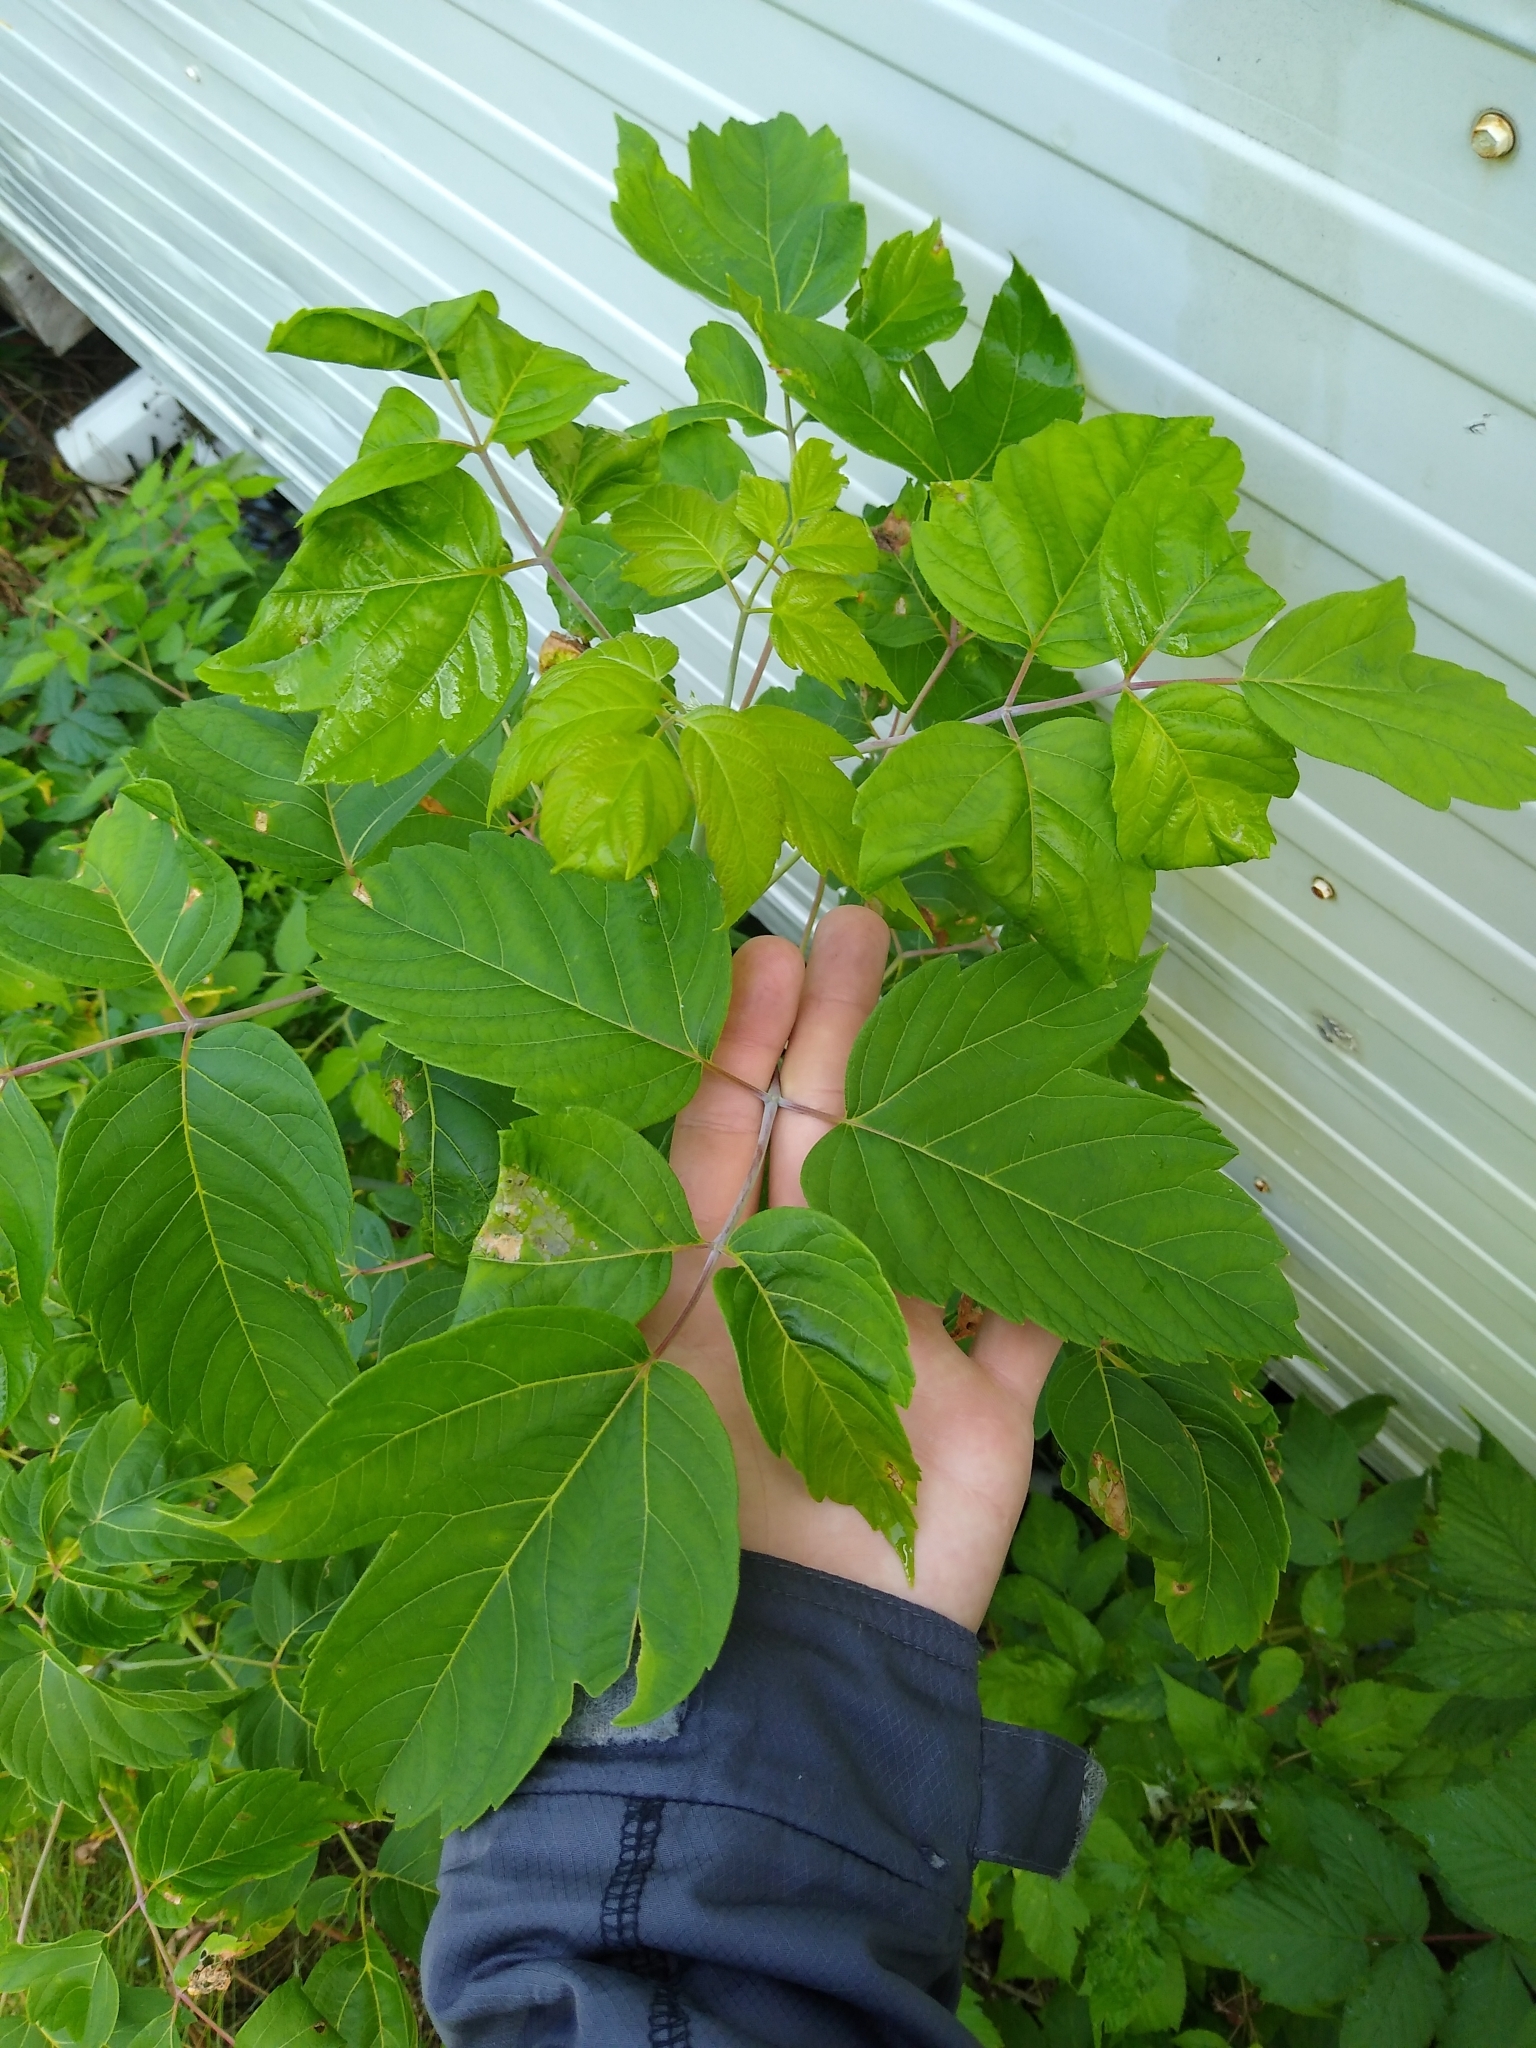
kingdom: Plantae
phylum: Tracheophyta
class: Magnoliopsida
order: Sapindales
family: Sapindaceae
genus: Acer
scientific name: Acer negundo
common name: Ashleaf maple
